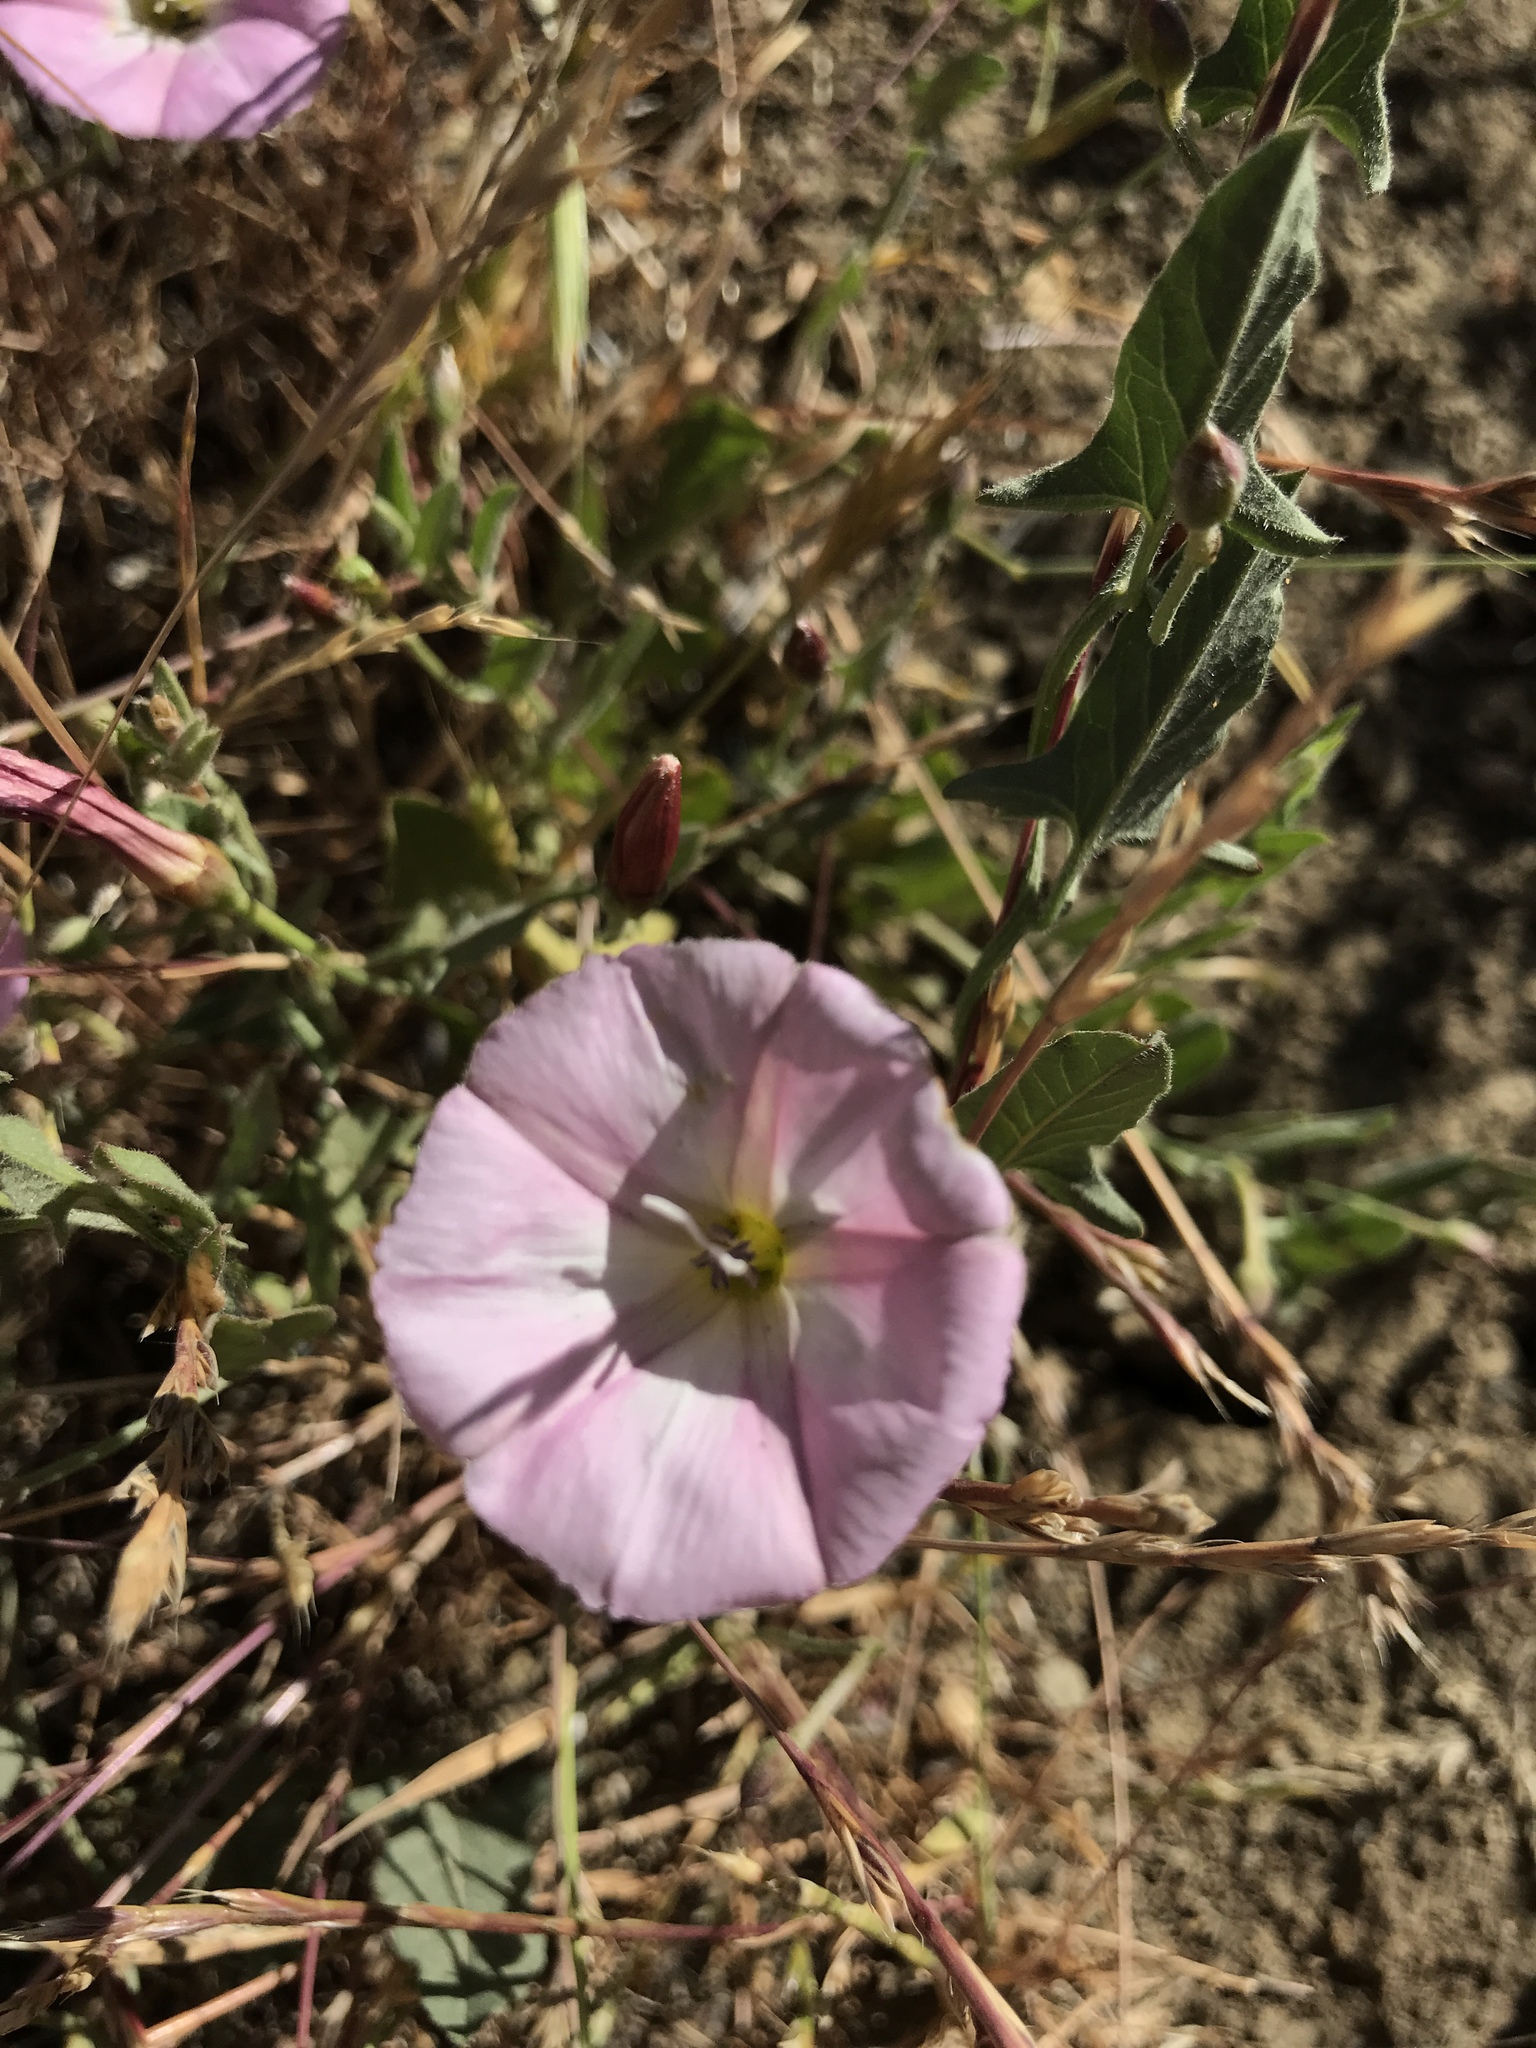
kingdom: Plantae
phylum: Tracheophyta
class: Magnoliopsida
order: Solanales
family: Convolvulaceae
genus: Convolvulus
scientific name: Convolvulus arvensis
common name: Field bindweed
